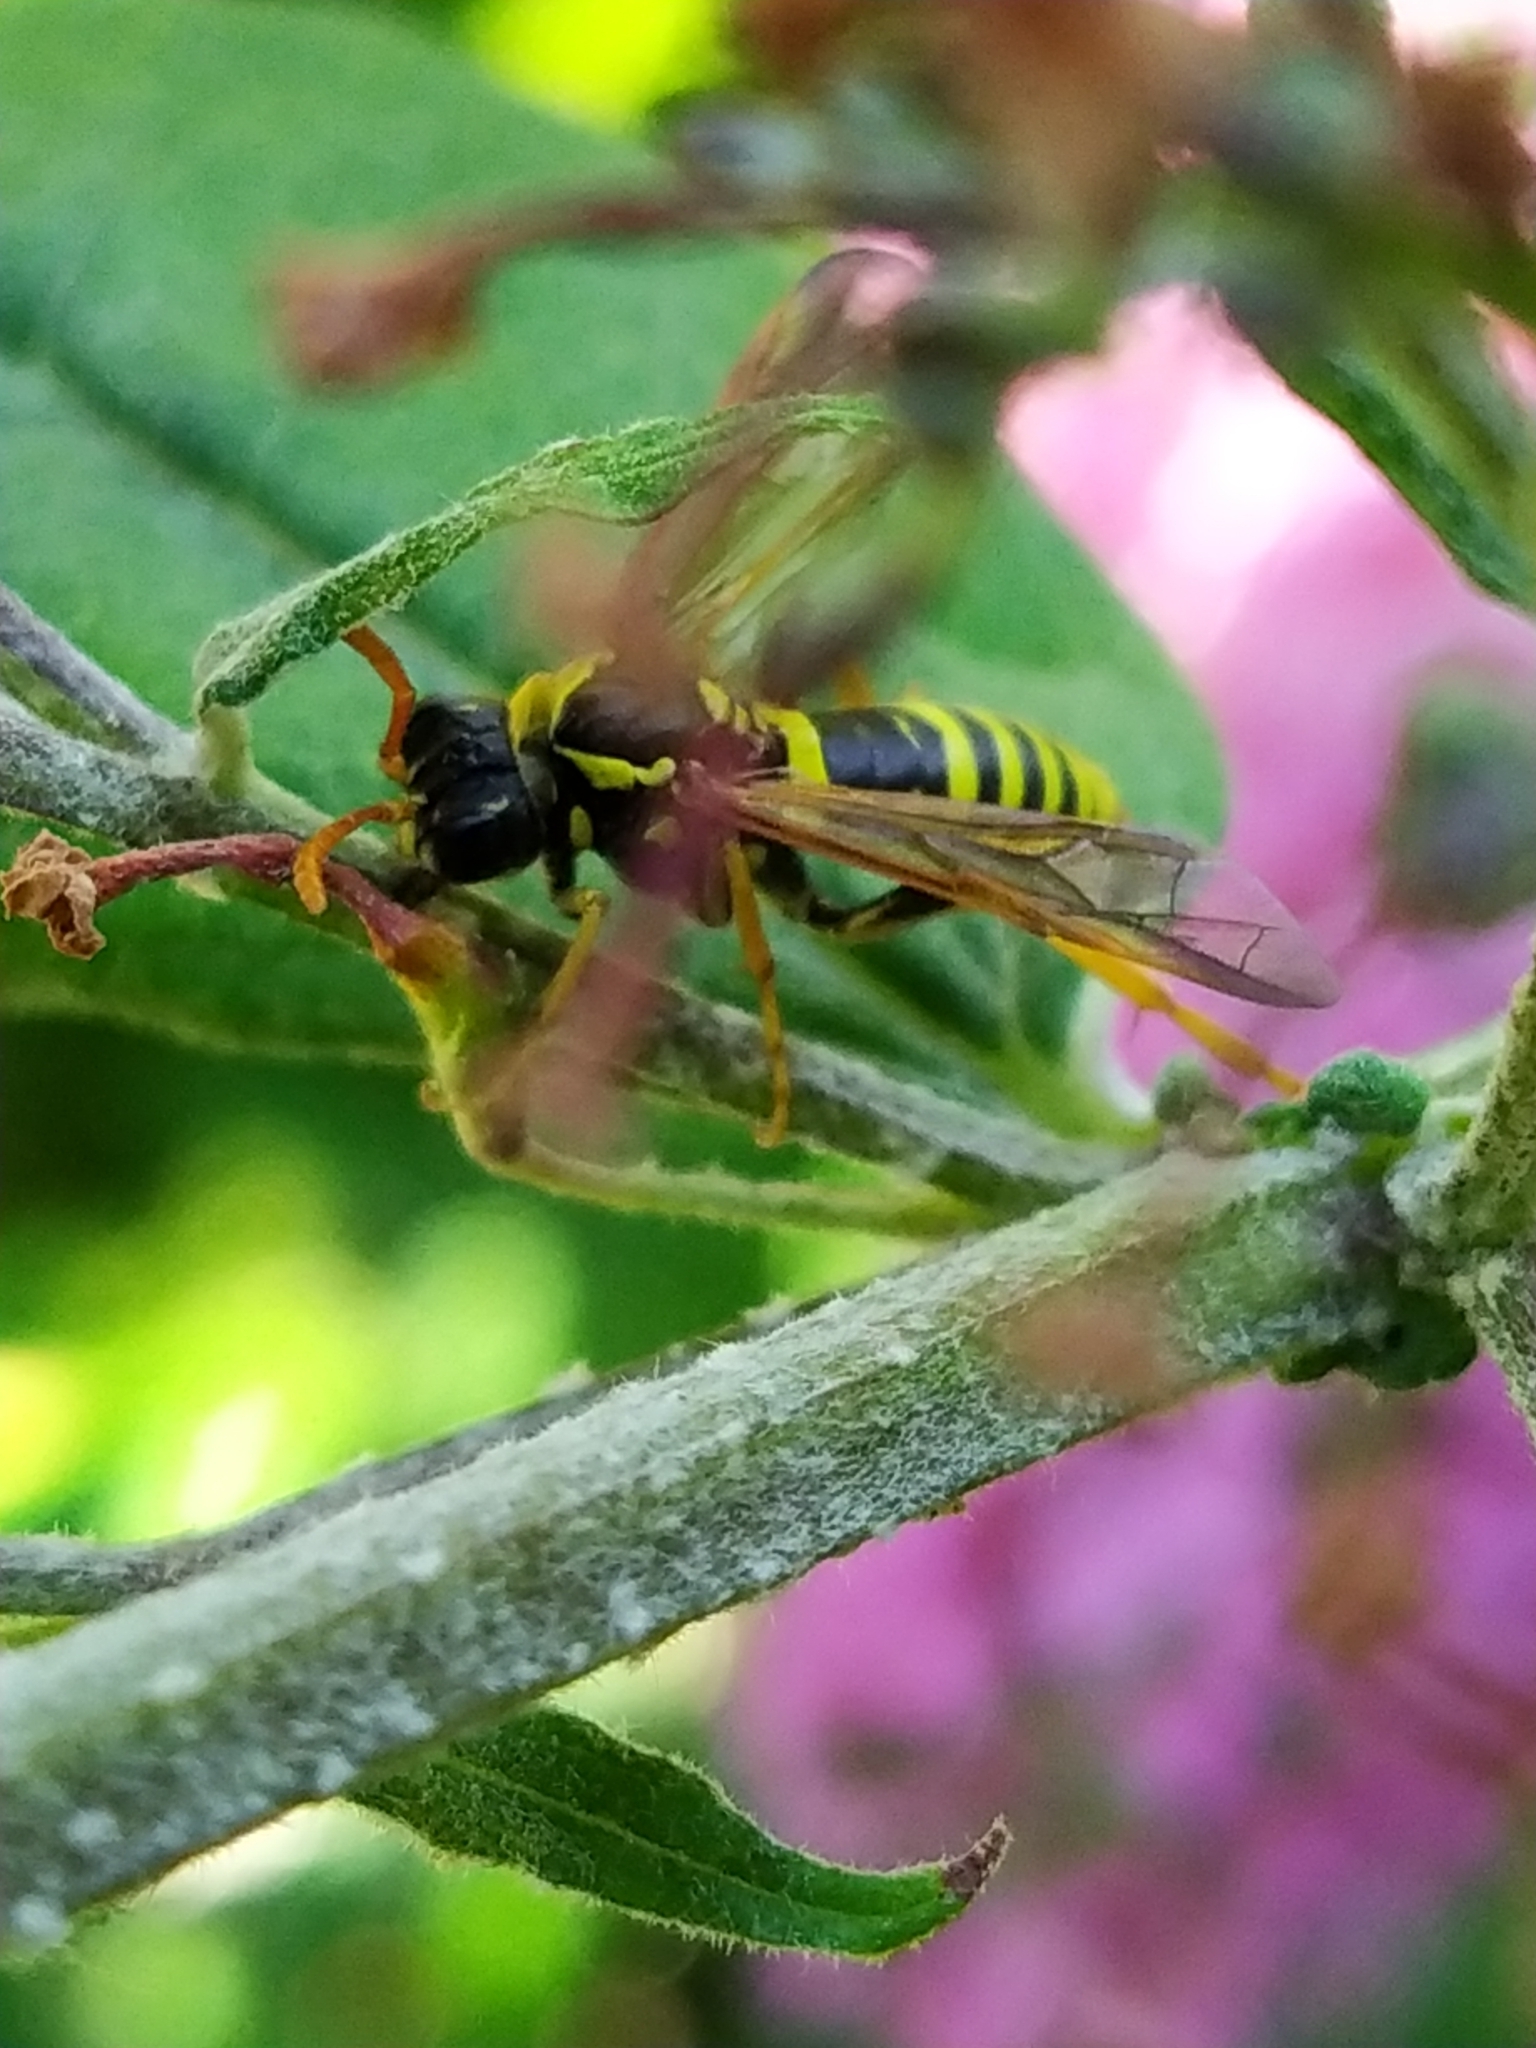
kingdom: Animalia
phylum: Arthropoda
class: Insecta
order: Hymenoptera
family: Tenthredinidae
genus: Tenthredo
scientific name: Tenthredo scrophulariae
